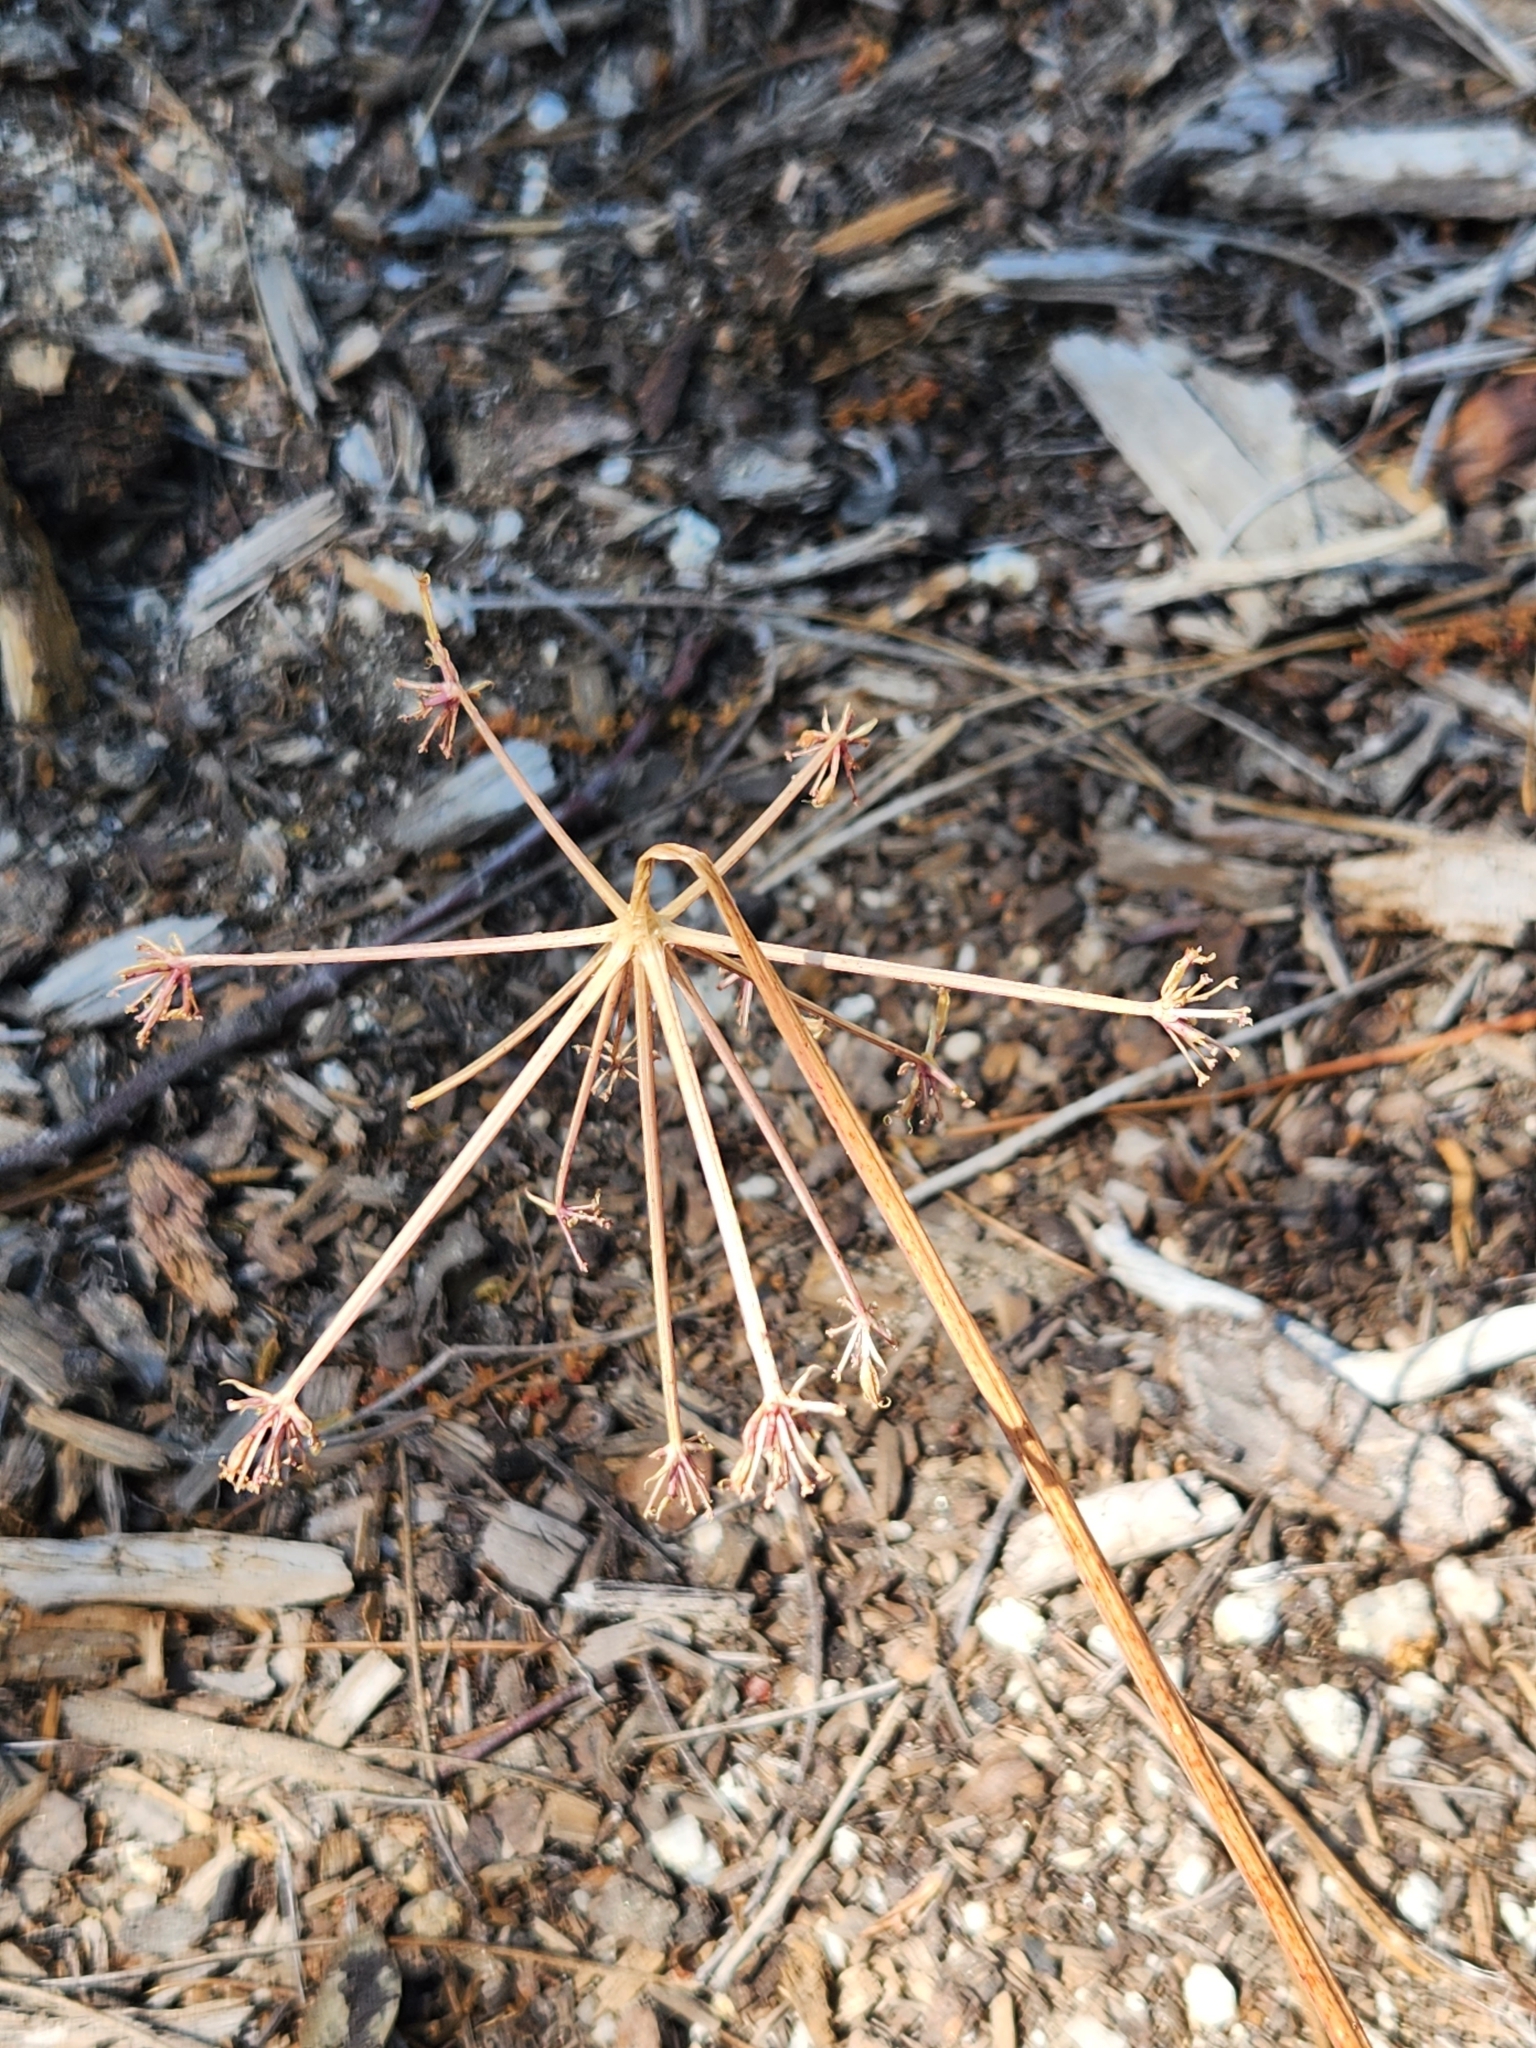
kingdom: Plantae
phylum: Tracheophyta
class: Magnoliopsida
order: Apiales
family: Apiaceae
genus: Tauschia
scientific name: Tauschia parishii
